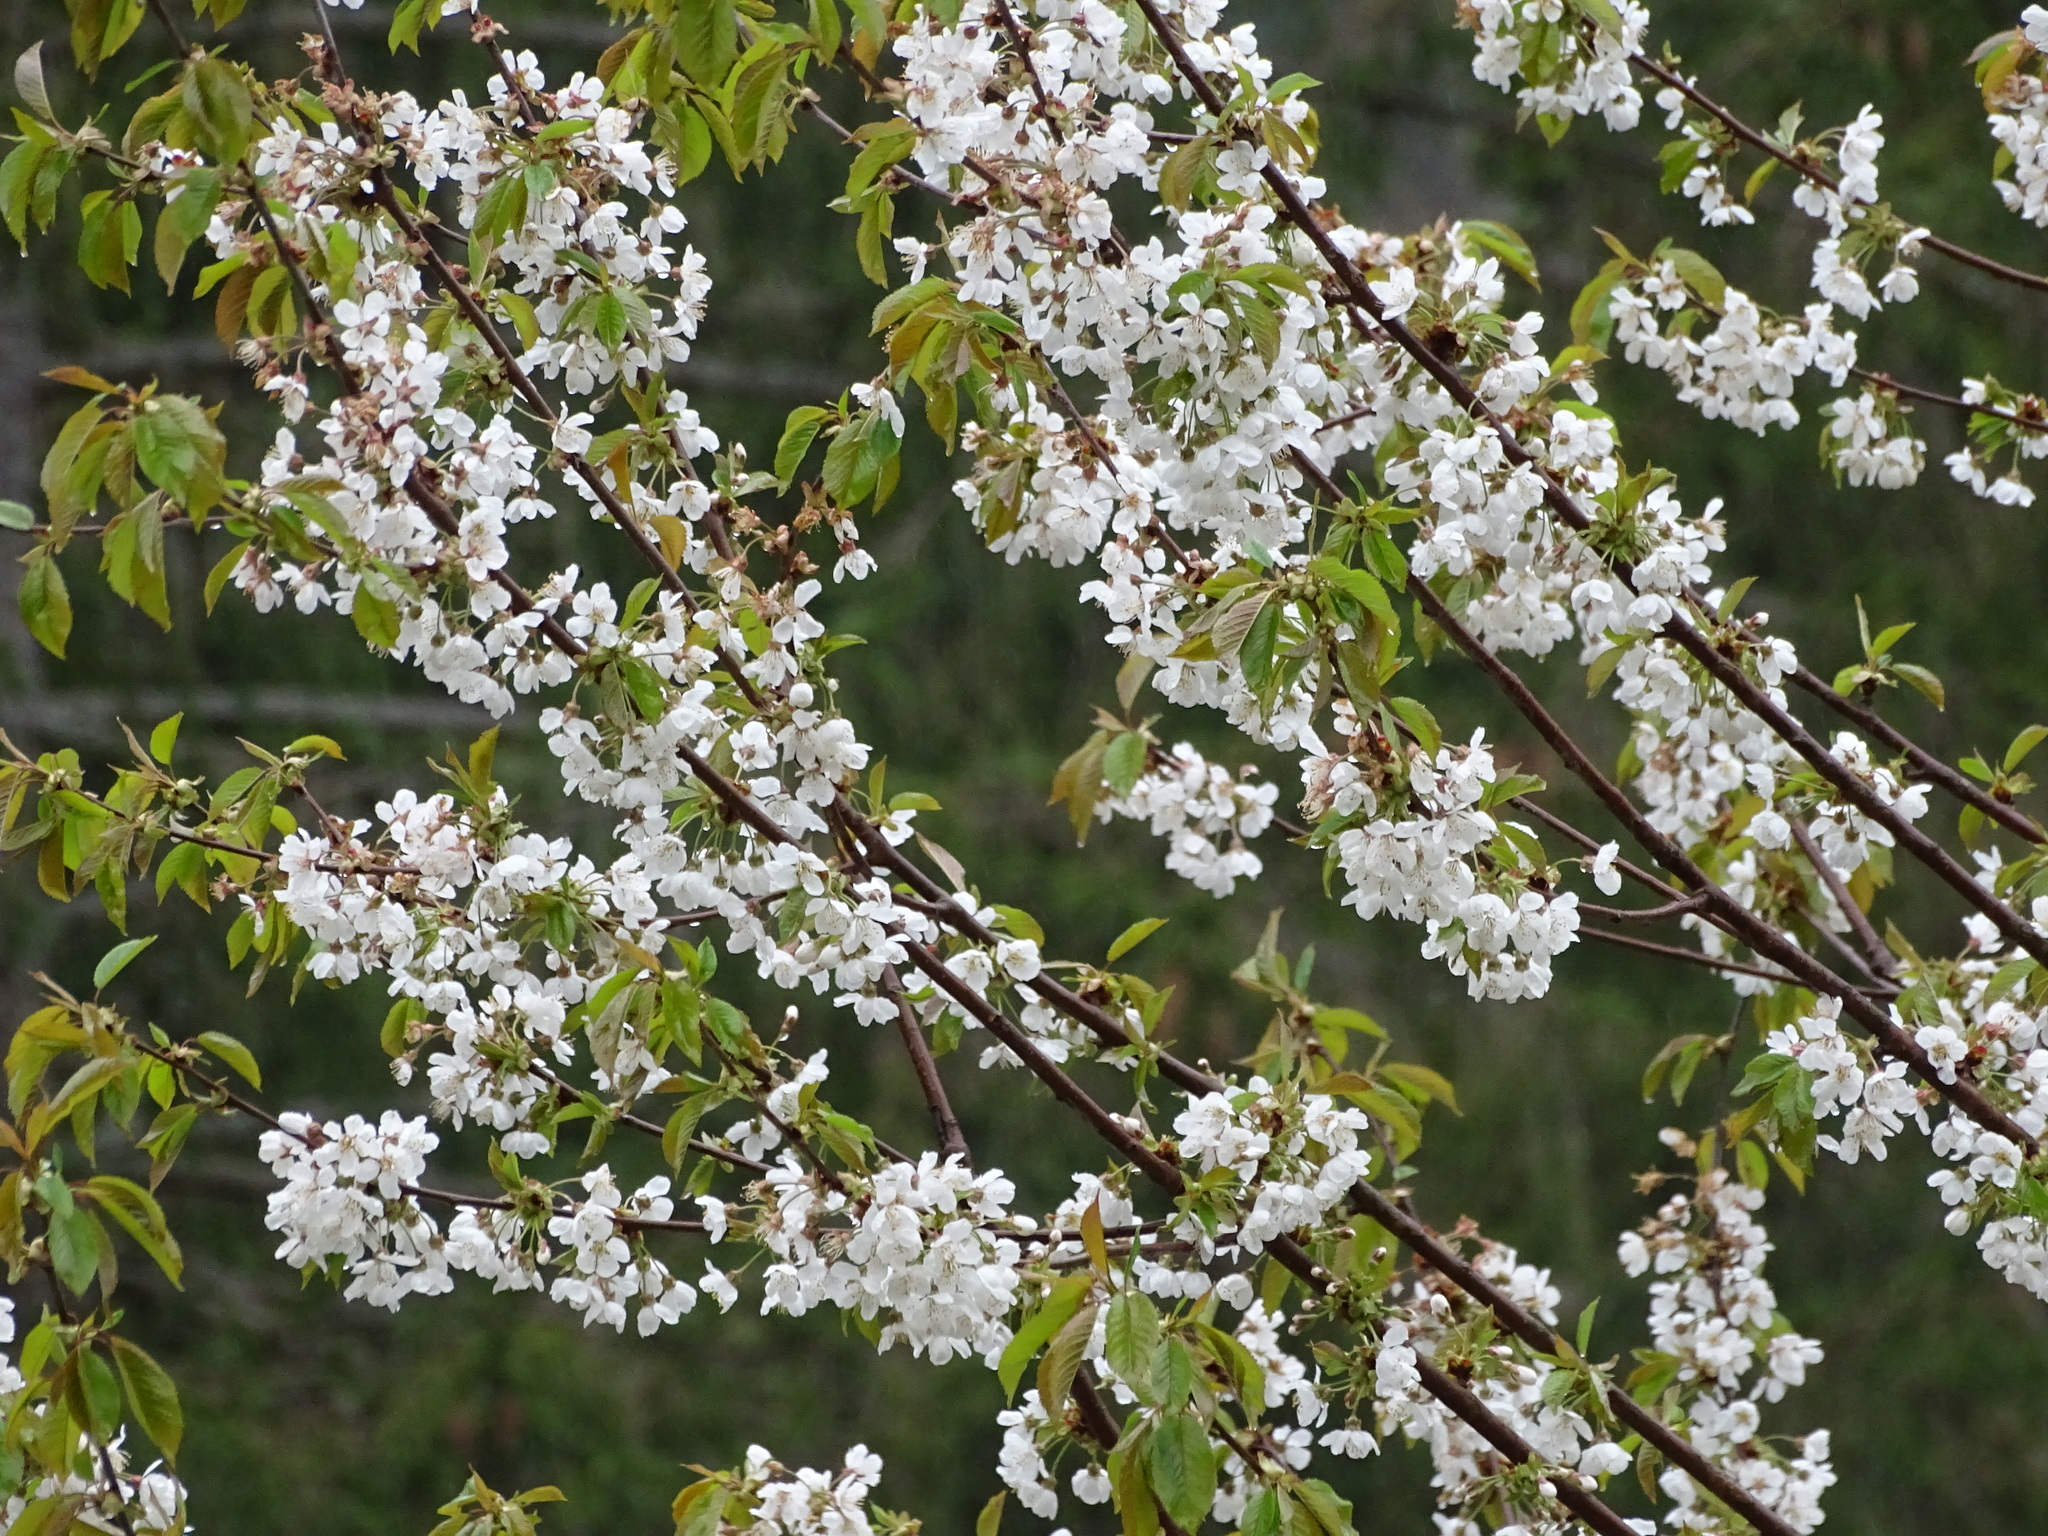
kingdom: Plantae
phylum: Tracheophyta
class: Magnoliopsida
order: Rosales
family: Rosaceae
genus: Prunus
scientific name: Prunus avium
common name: Sweet cherry
